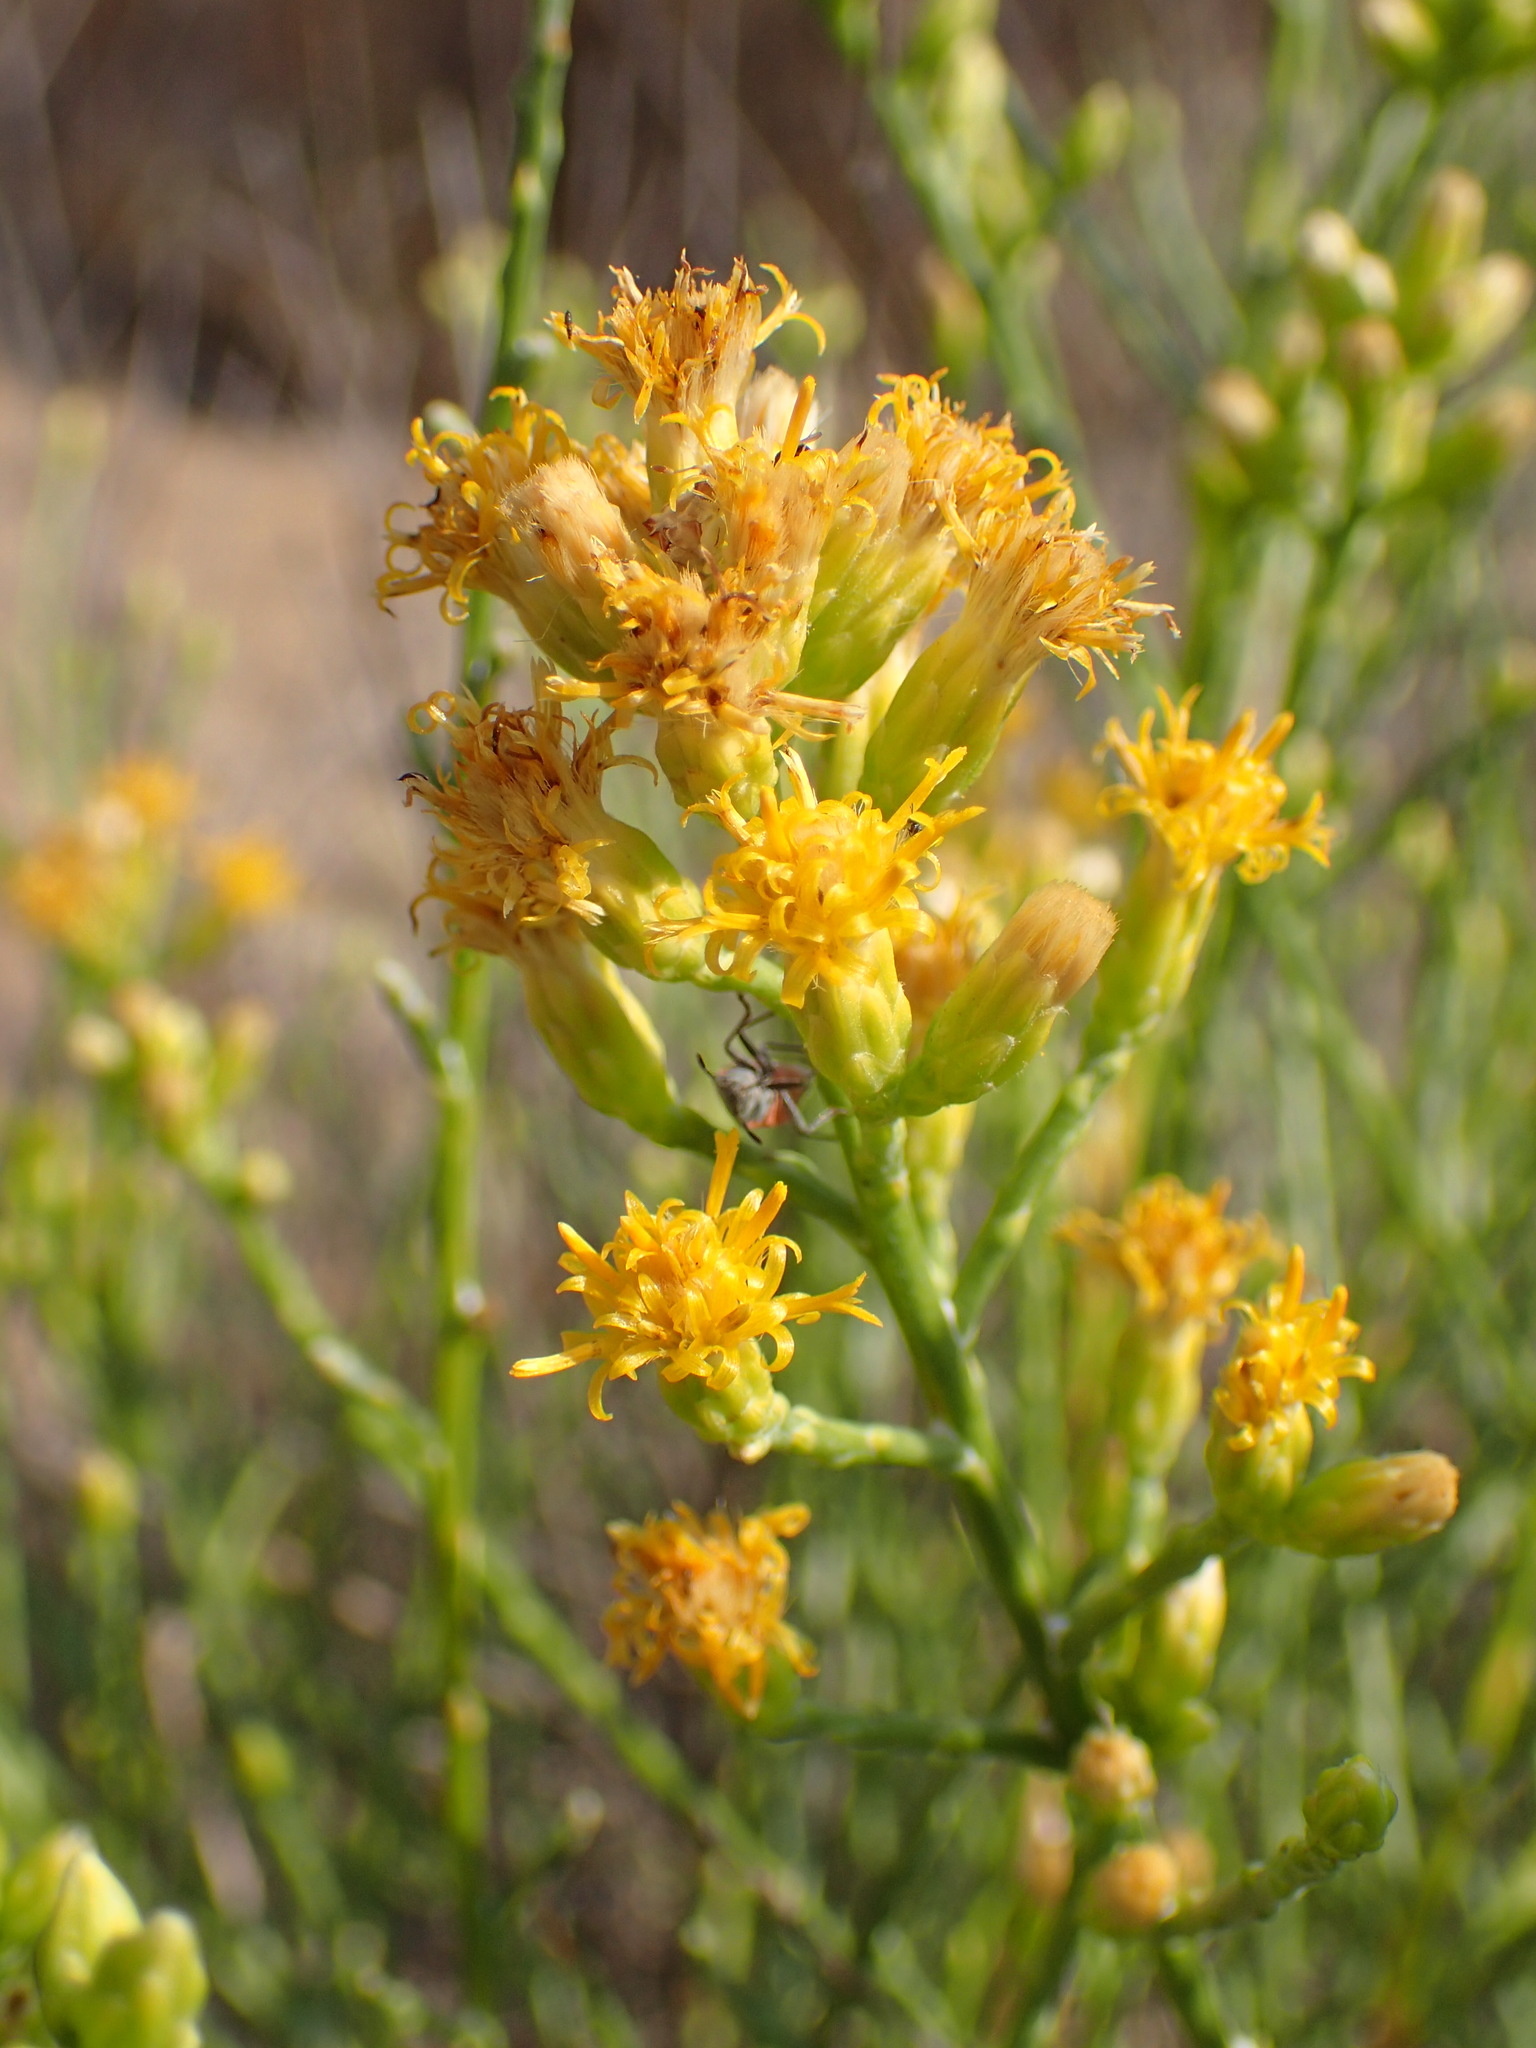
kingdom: Plantae
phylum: Tracheophyta
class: Magnoliopsida
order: Asterales
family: Asteraceae
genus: Lepidospartum
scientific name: Lepidospartum squamatum
